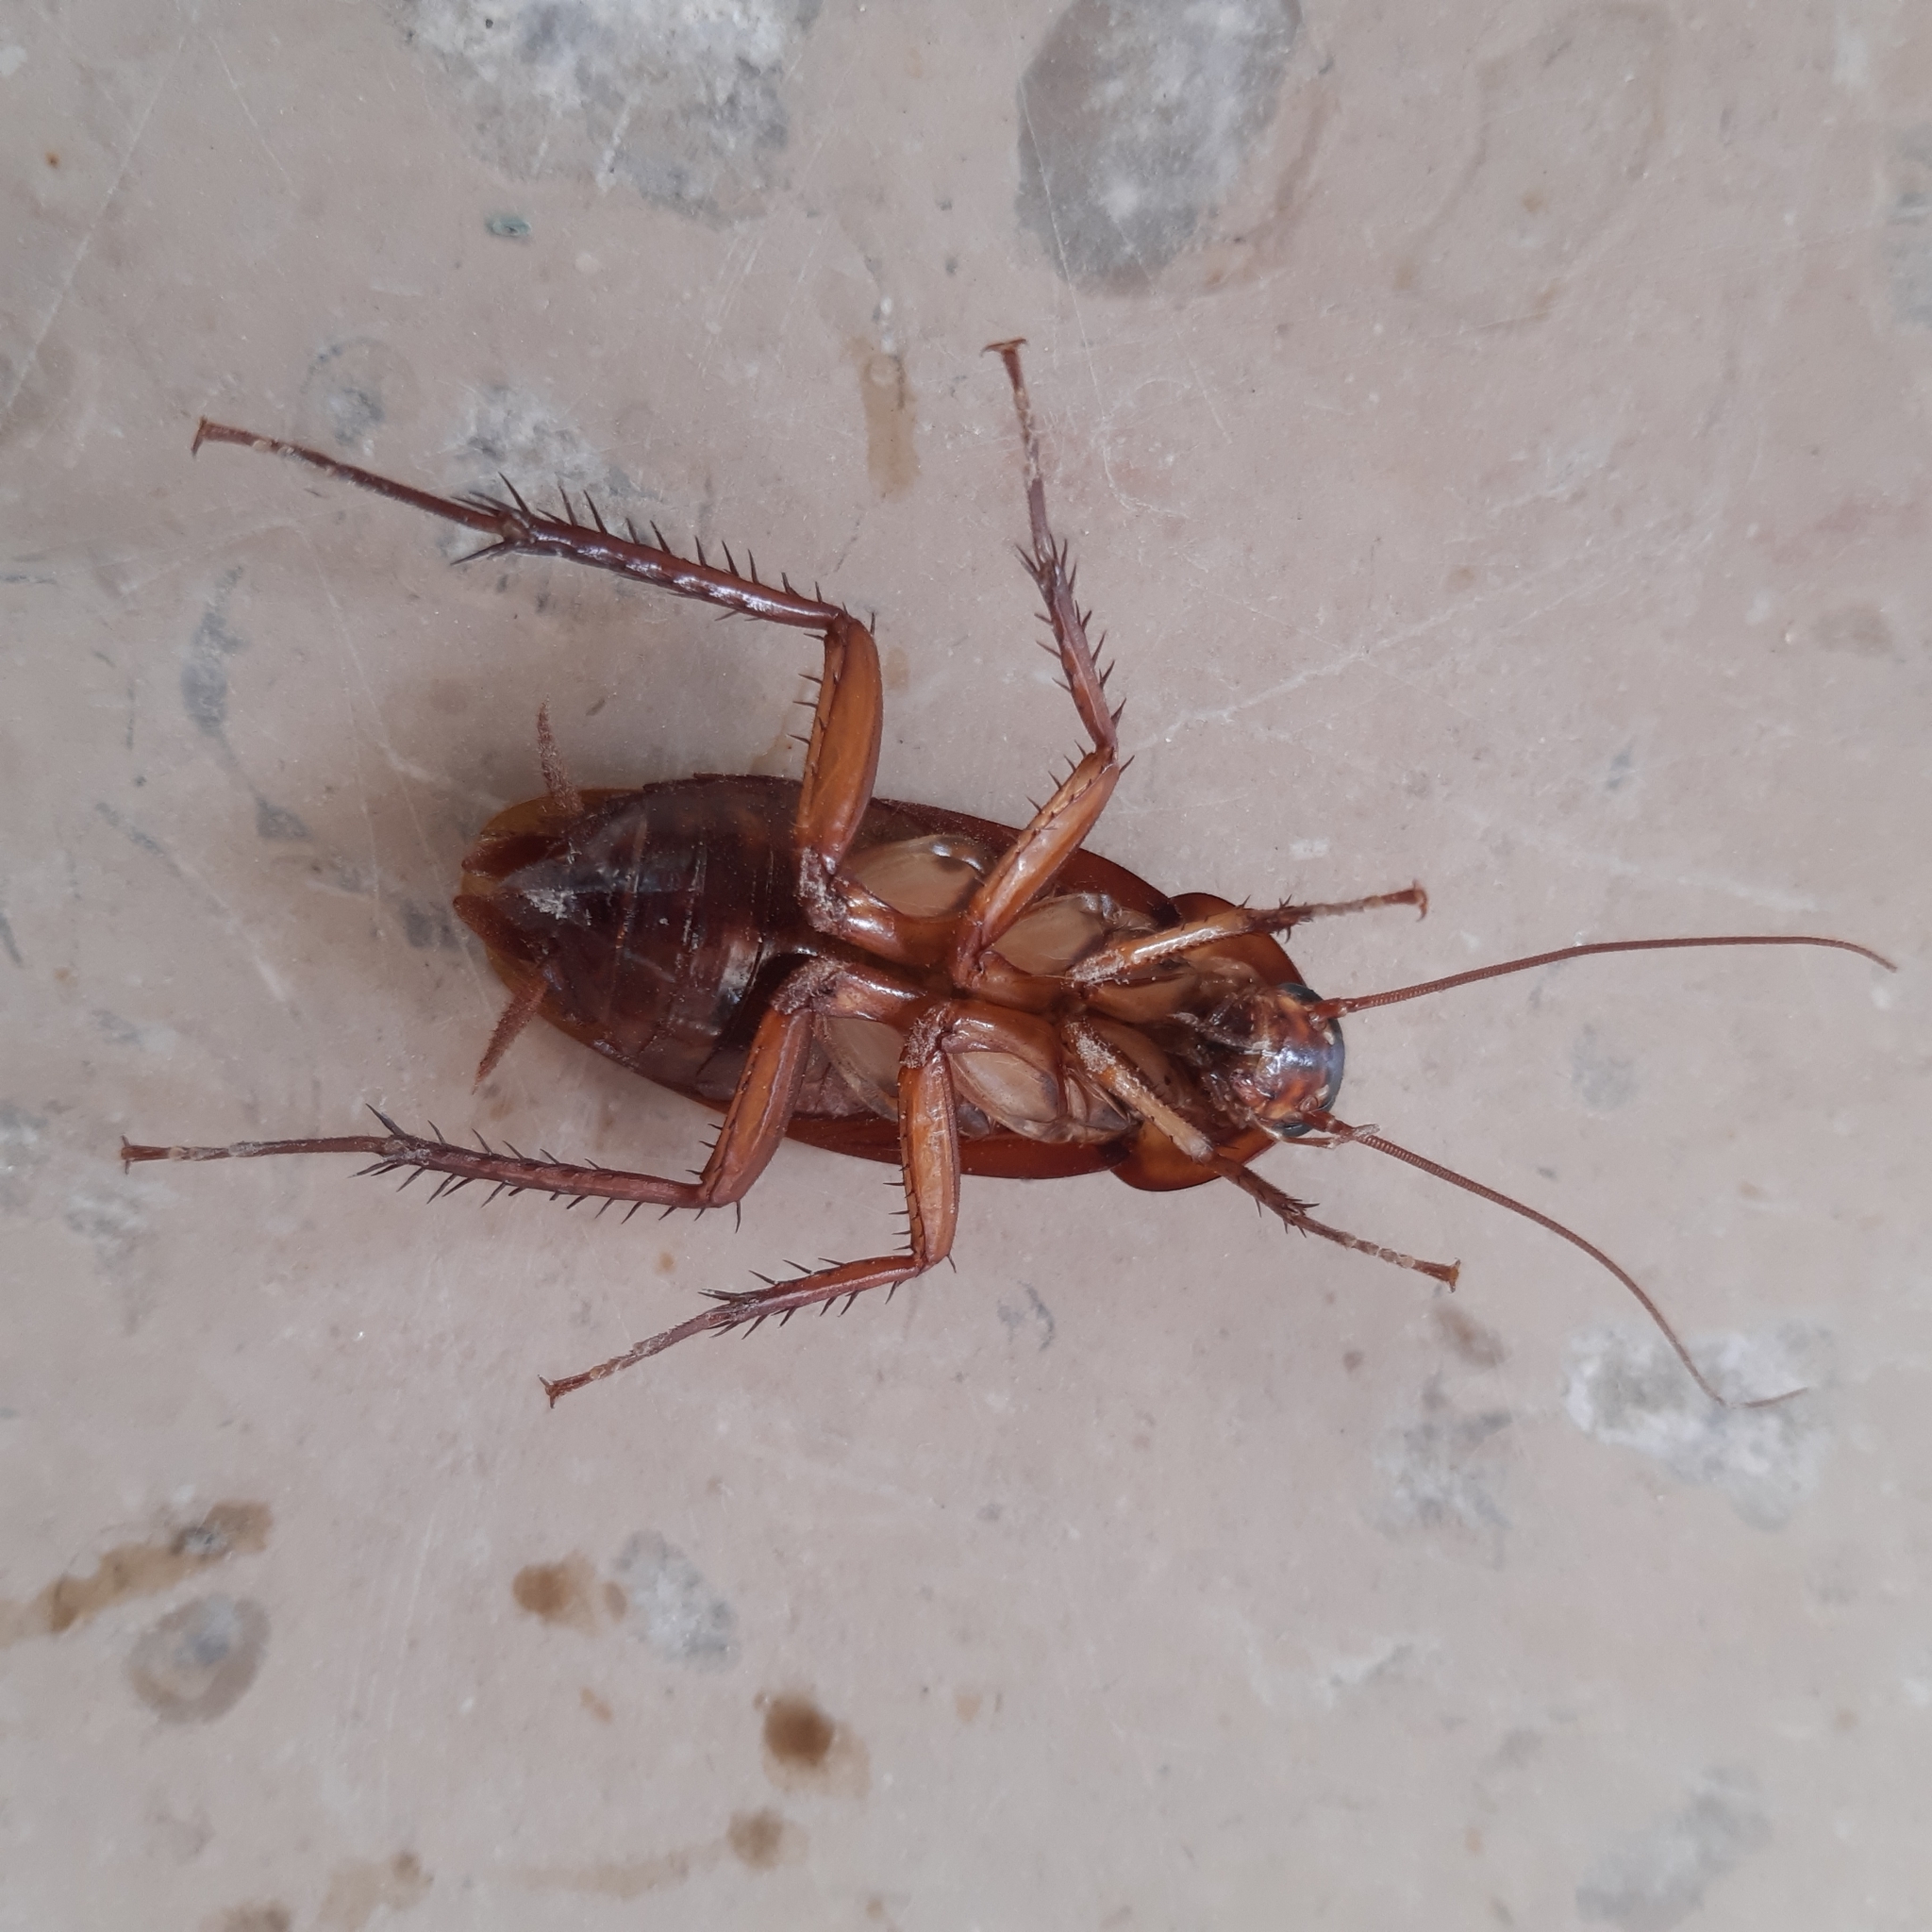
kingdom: Animalia
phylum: Arthropoda
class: Insecta
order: Blattodea
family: Blattidae
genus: Periplaneta
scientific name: Periplaneta americana
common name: American cockroach
